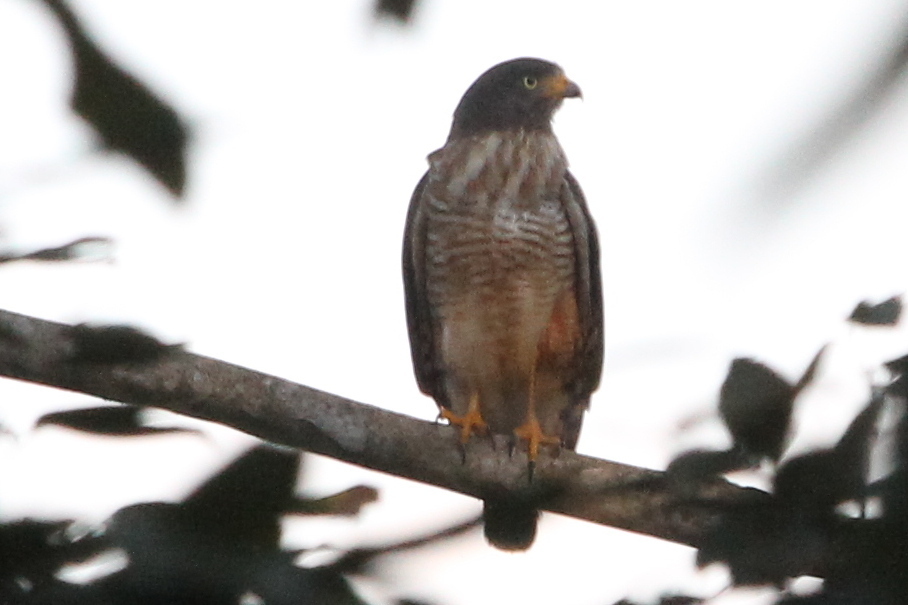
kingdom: Animalia
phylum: Chordata
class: Aves
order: Accipitriformes
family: Accipitridae
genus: Rupornis
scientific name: Rupornis magnirostris
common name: Roadside hawk
